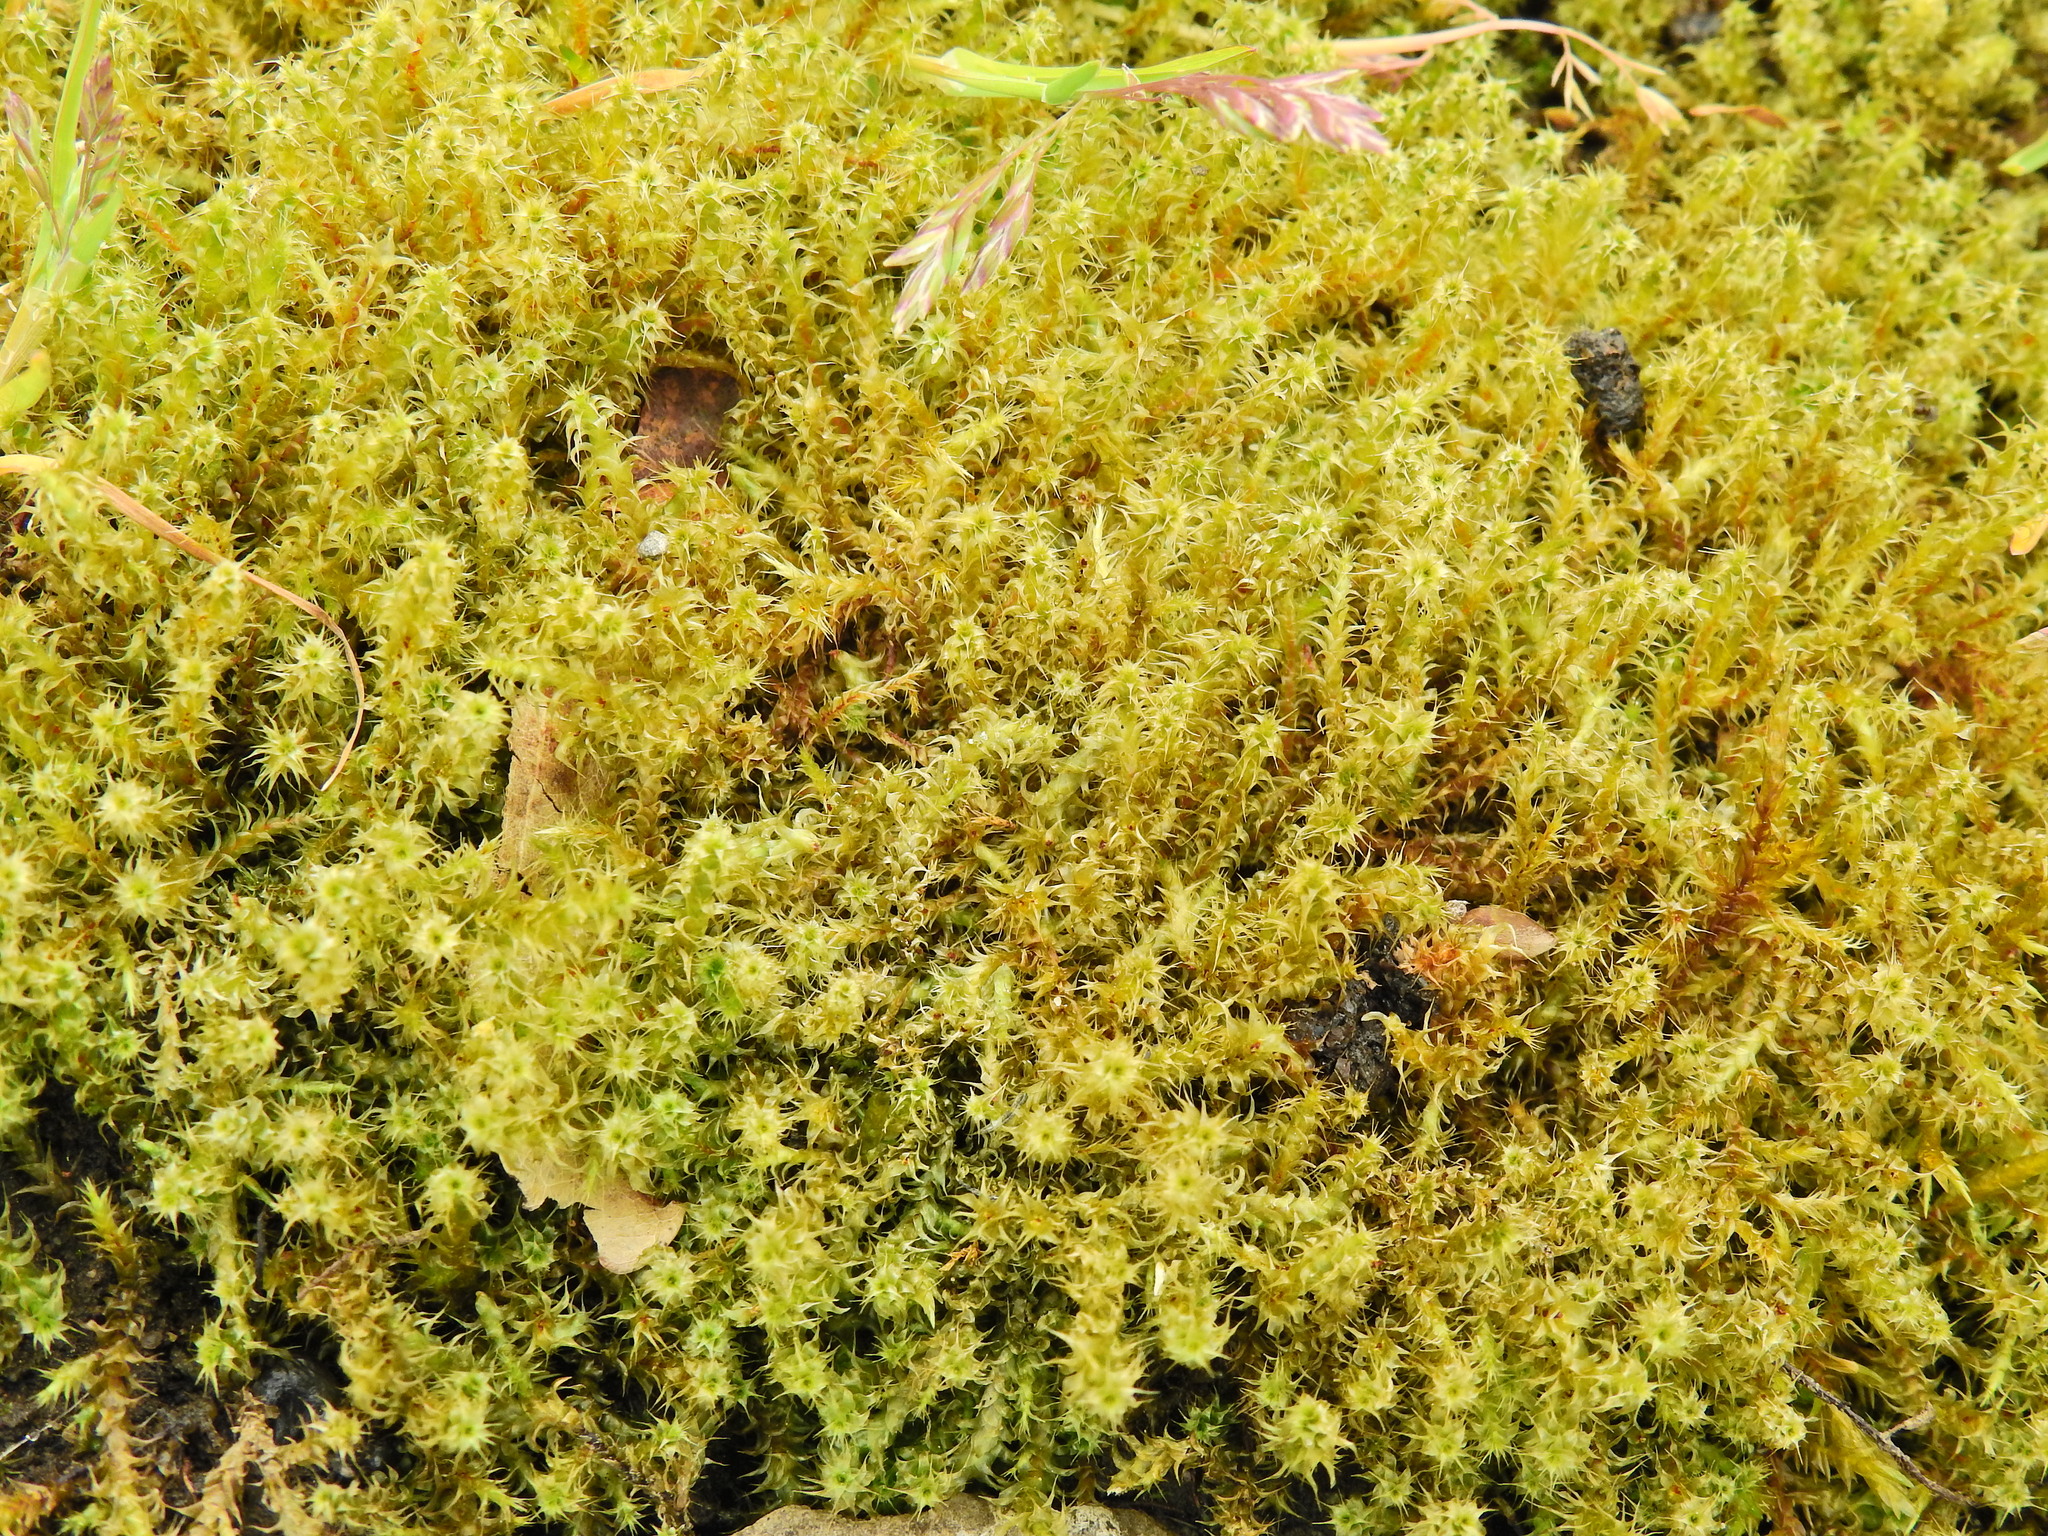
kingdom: Plantae
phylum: Bryophyta
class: Bryopsida
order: Hypnales
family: Hylocomiaceae
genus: Rhytidiadelphus
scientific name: Rhytidiadelphus squarrosus
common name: Springy turf-moss
